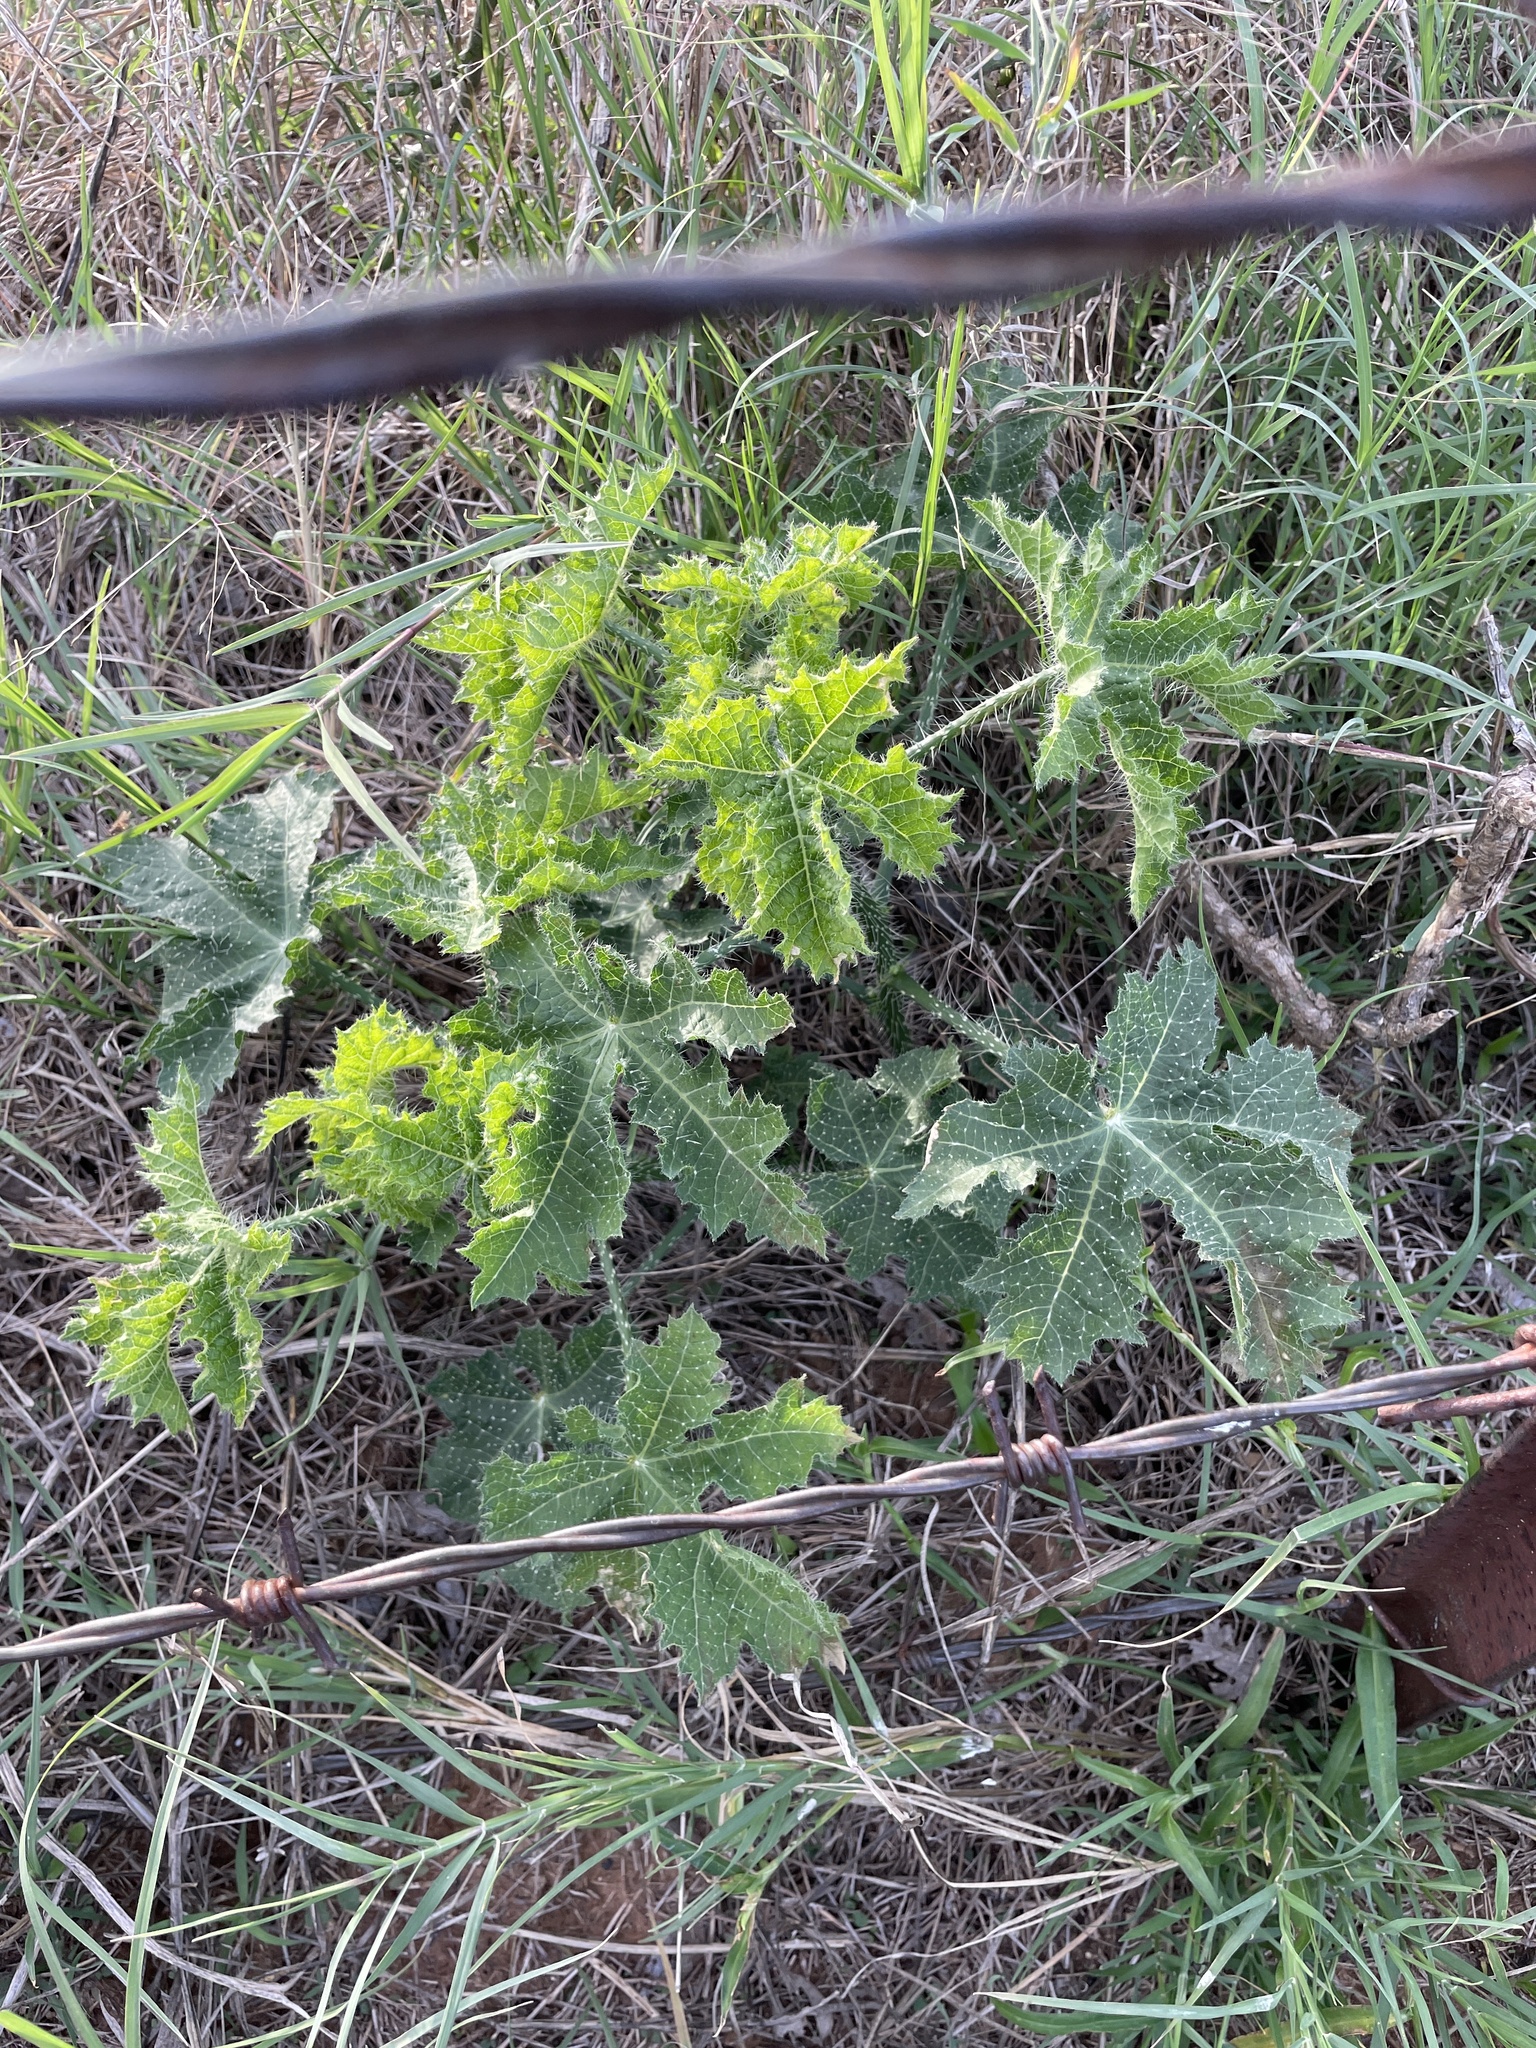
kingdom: Plantae
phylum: Tracheophyta
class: Magnoliopsida
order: Malpighiales
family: Euphorbiaceae
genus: Cnidoscolus
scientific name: Cnidoscolus texanus
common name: Texas bull-nettle
